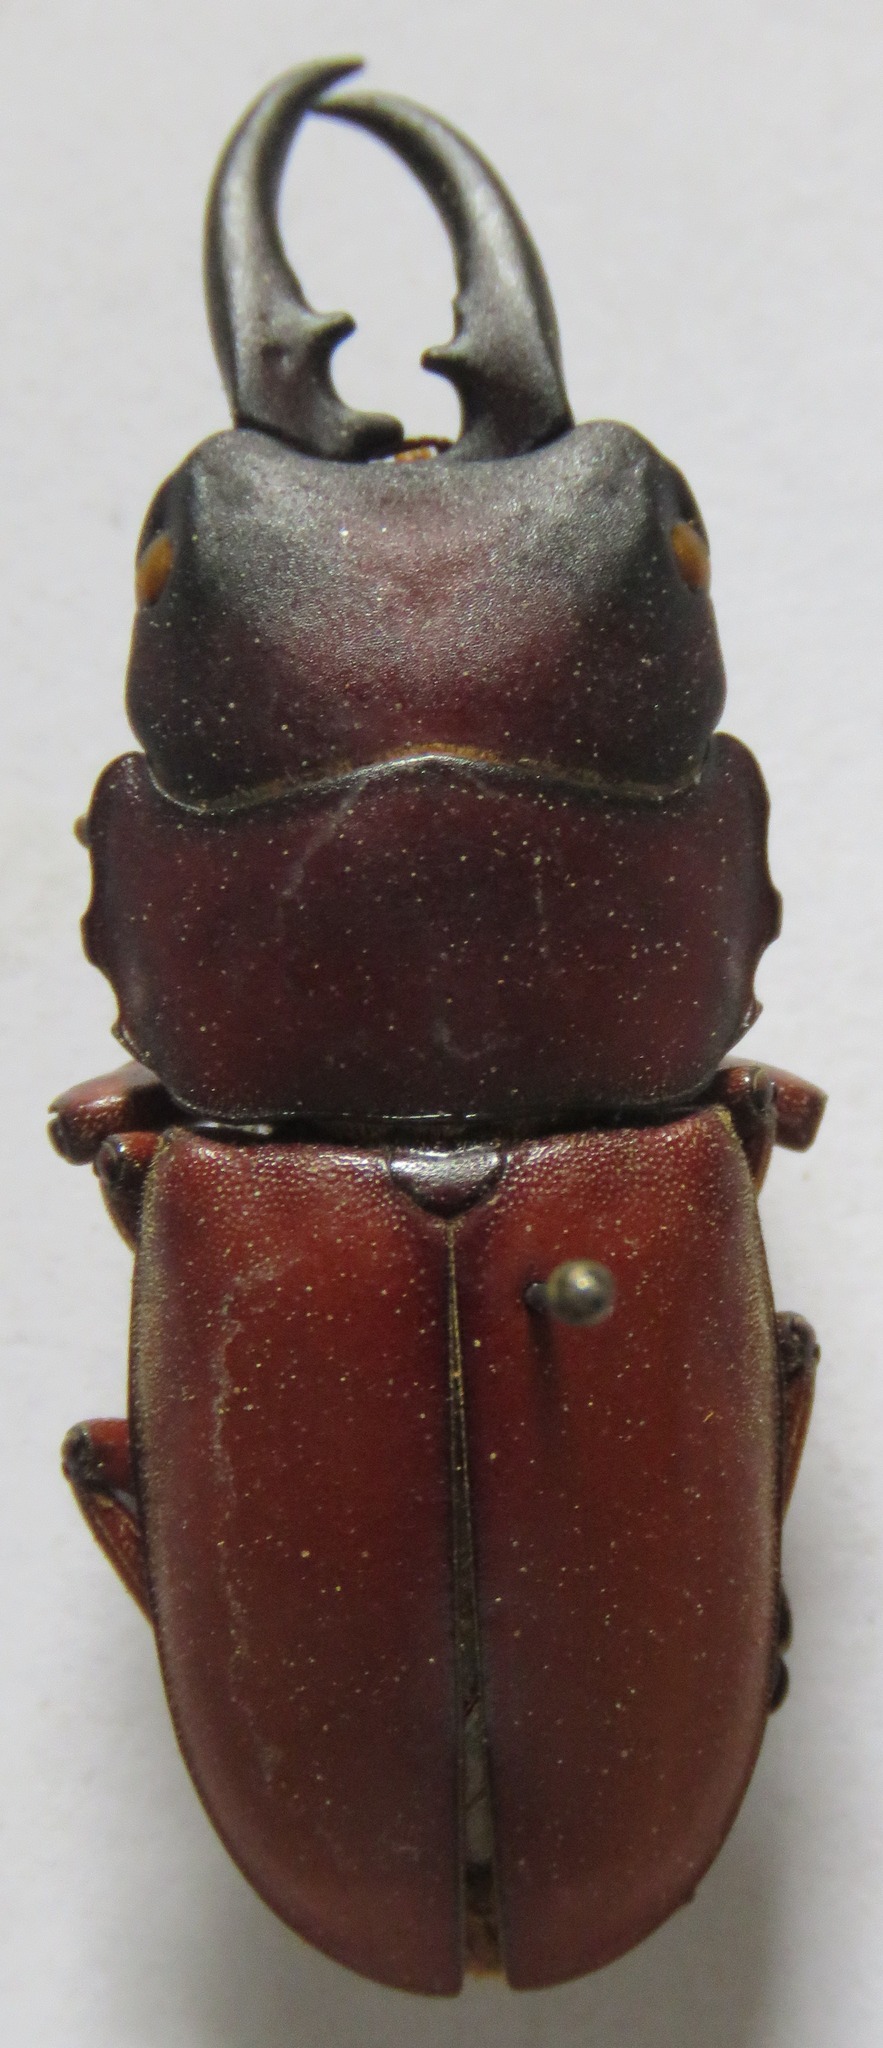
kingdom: Animalia
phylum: Arthropoda
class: Insecta
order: Coleoptera
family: Lucanidae
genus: Prosopocoilus
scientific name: Prosopocoilus romeoi
